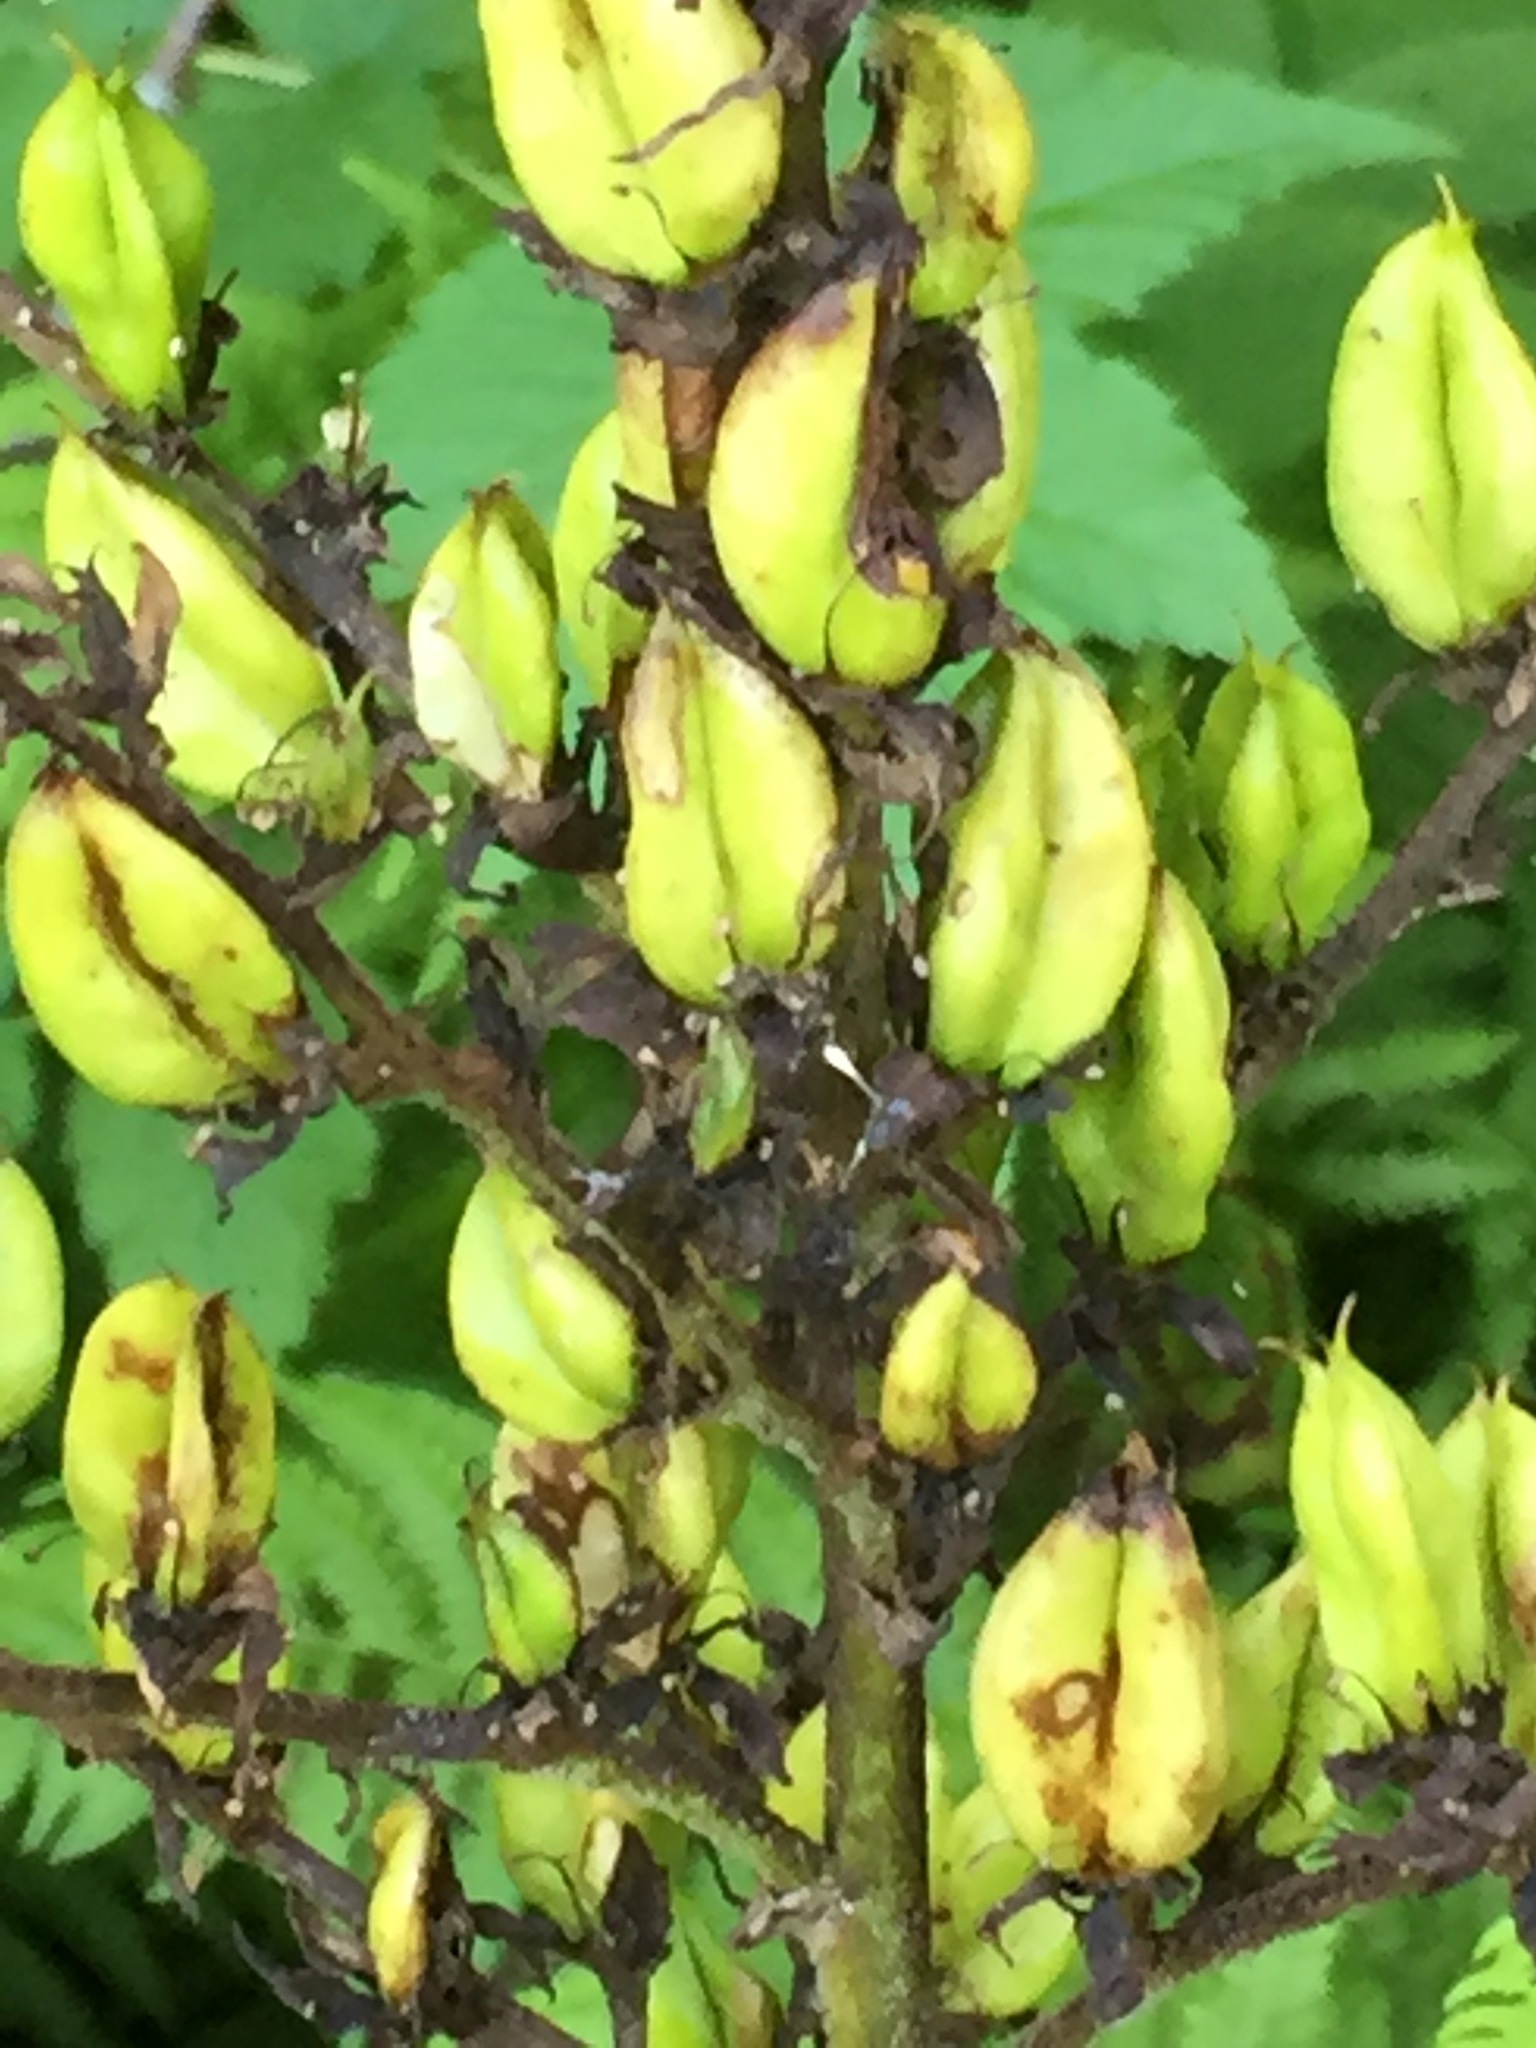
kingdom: Plantae
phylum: Tracheophyta
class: Liliopsida
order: Liliales
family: Melanthiaceae
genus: Veratrum
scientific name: Veratrum viride
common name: American false hellebore
